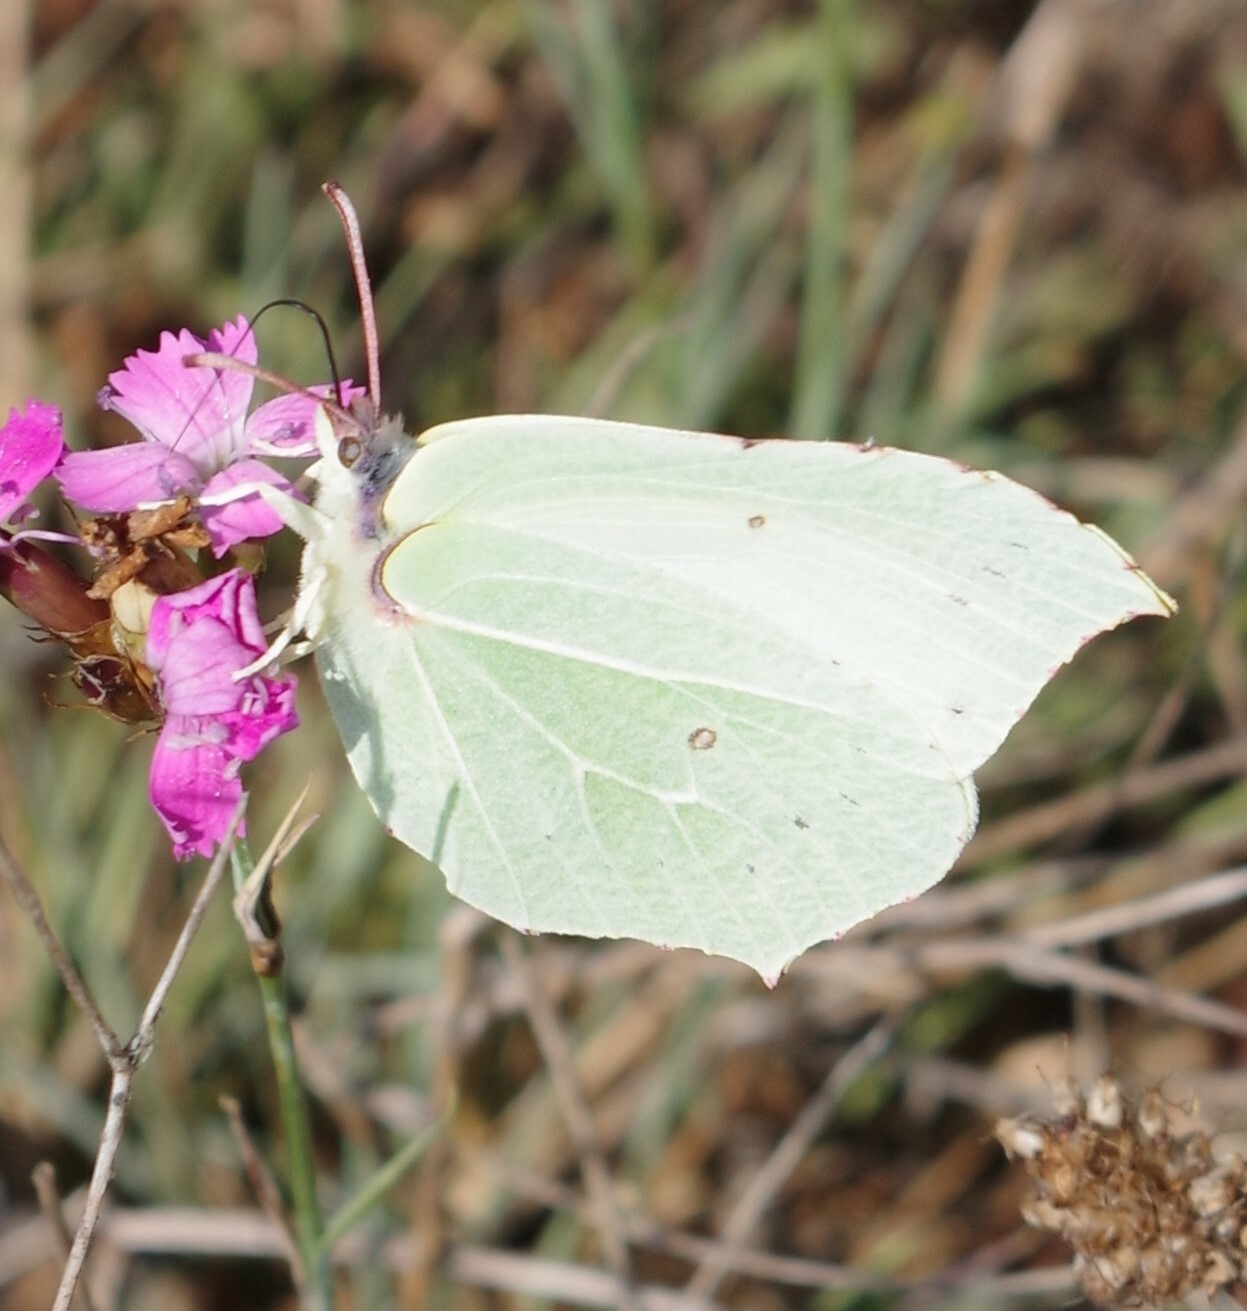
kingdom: Animalia
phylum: Arthropoda
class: Insecta
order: Lepidoptera
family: Pieridae
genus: Gonepteryx
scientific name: Gonepteryx rhamni
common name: Brimstone
